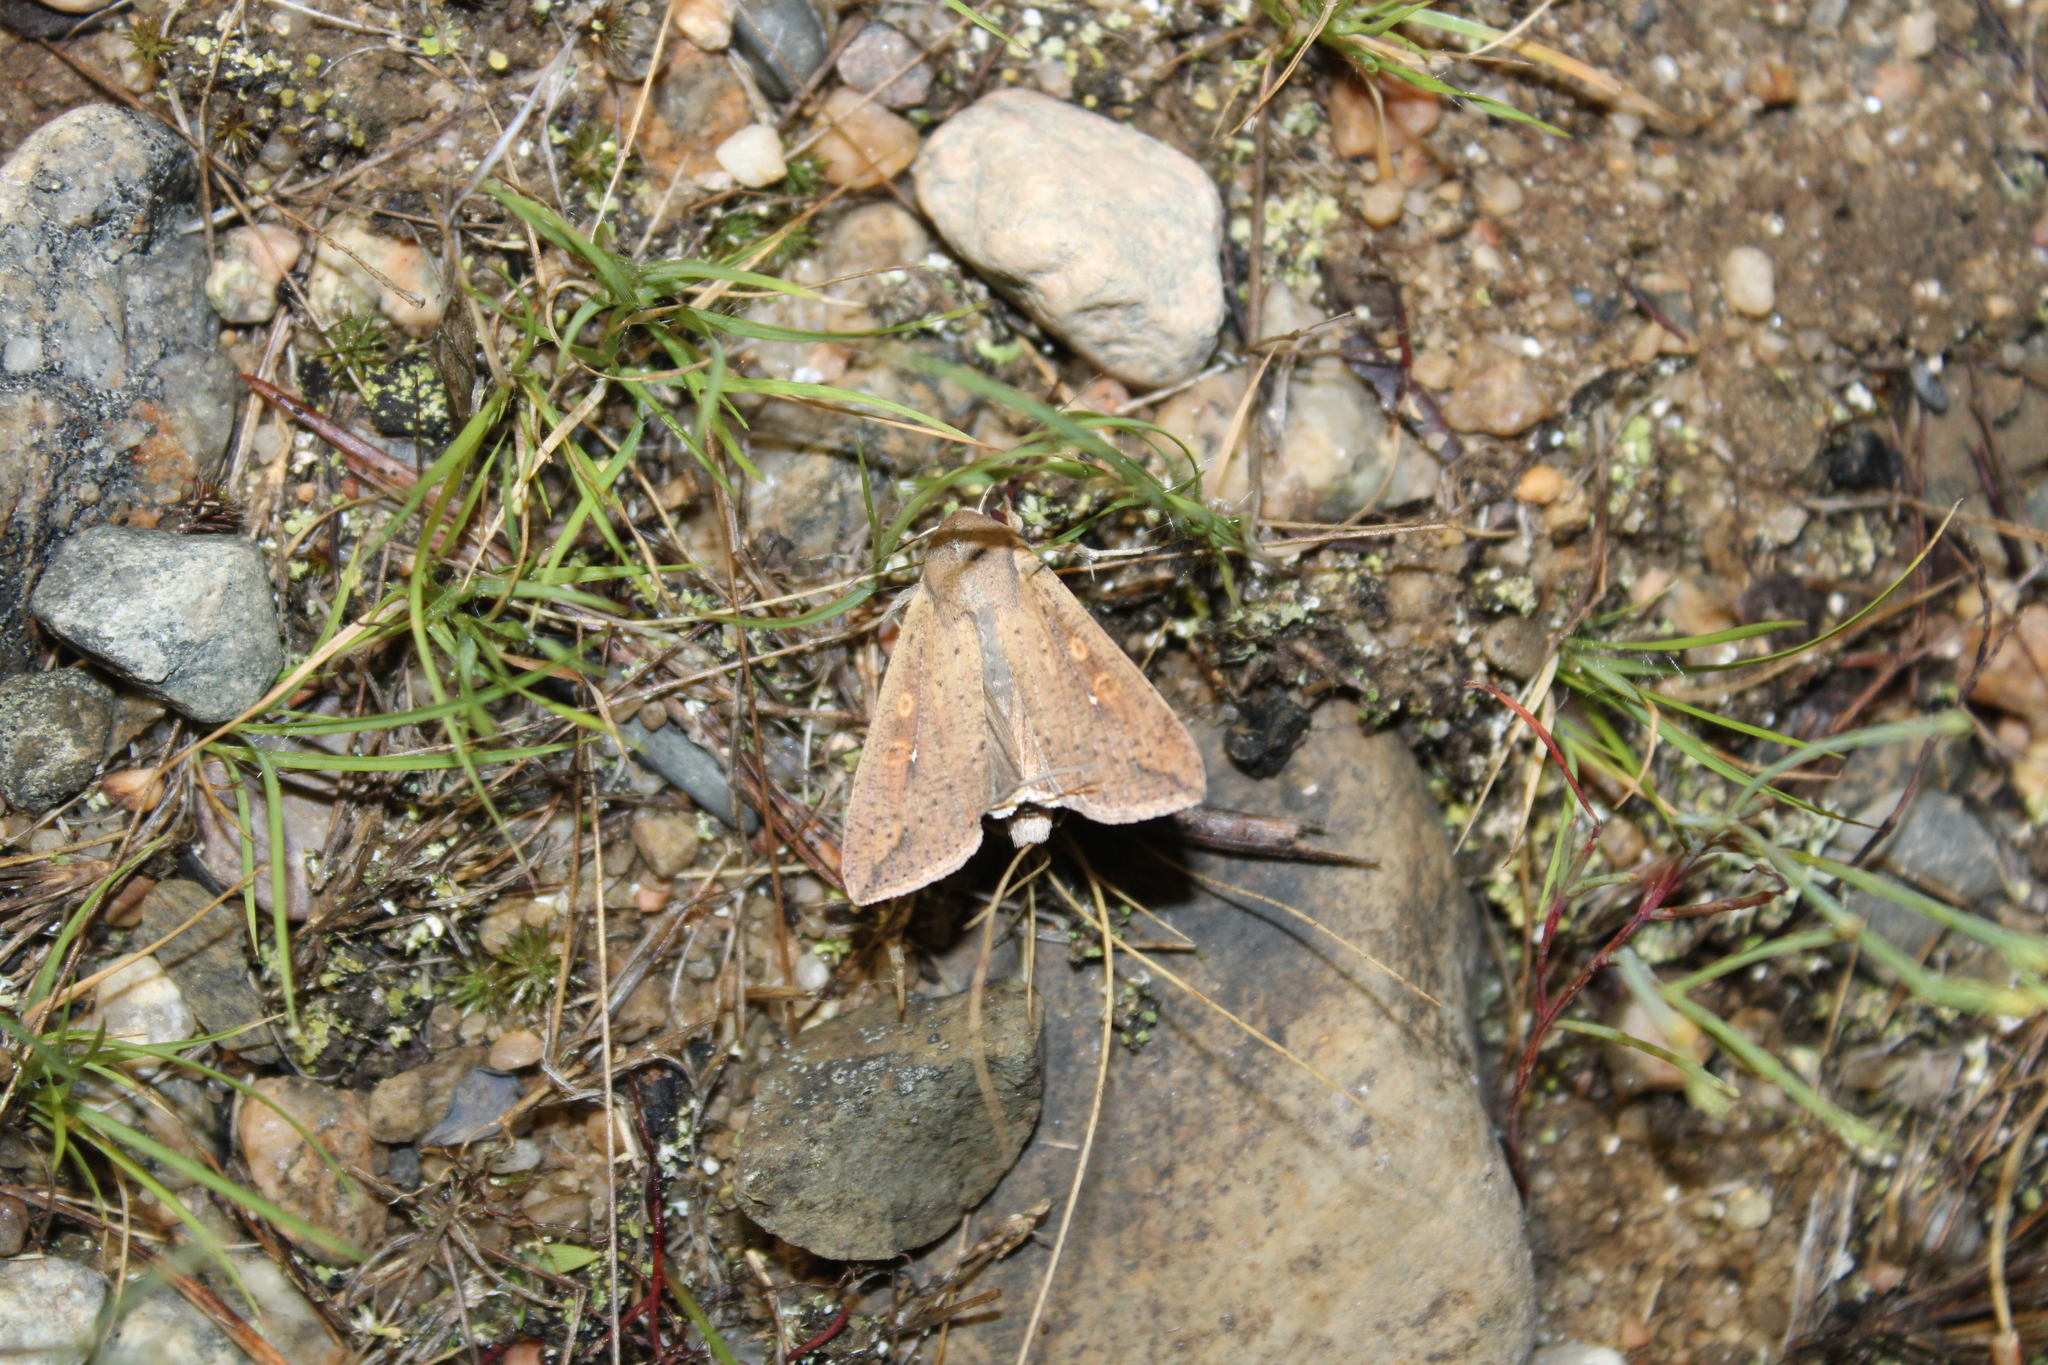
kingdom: Animalia
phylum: Arthropoda
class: Insecta
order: Lepidoptera
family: Noctuidae
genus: Mythimna
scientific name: Mythimna unipuncta
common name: White-speck
